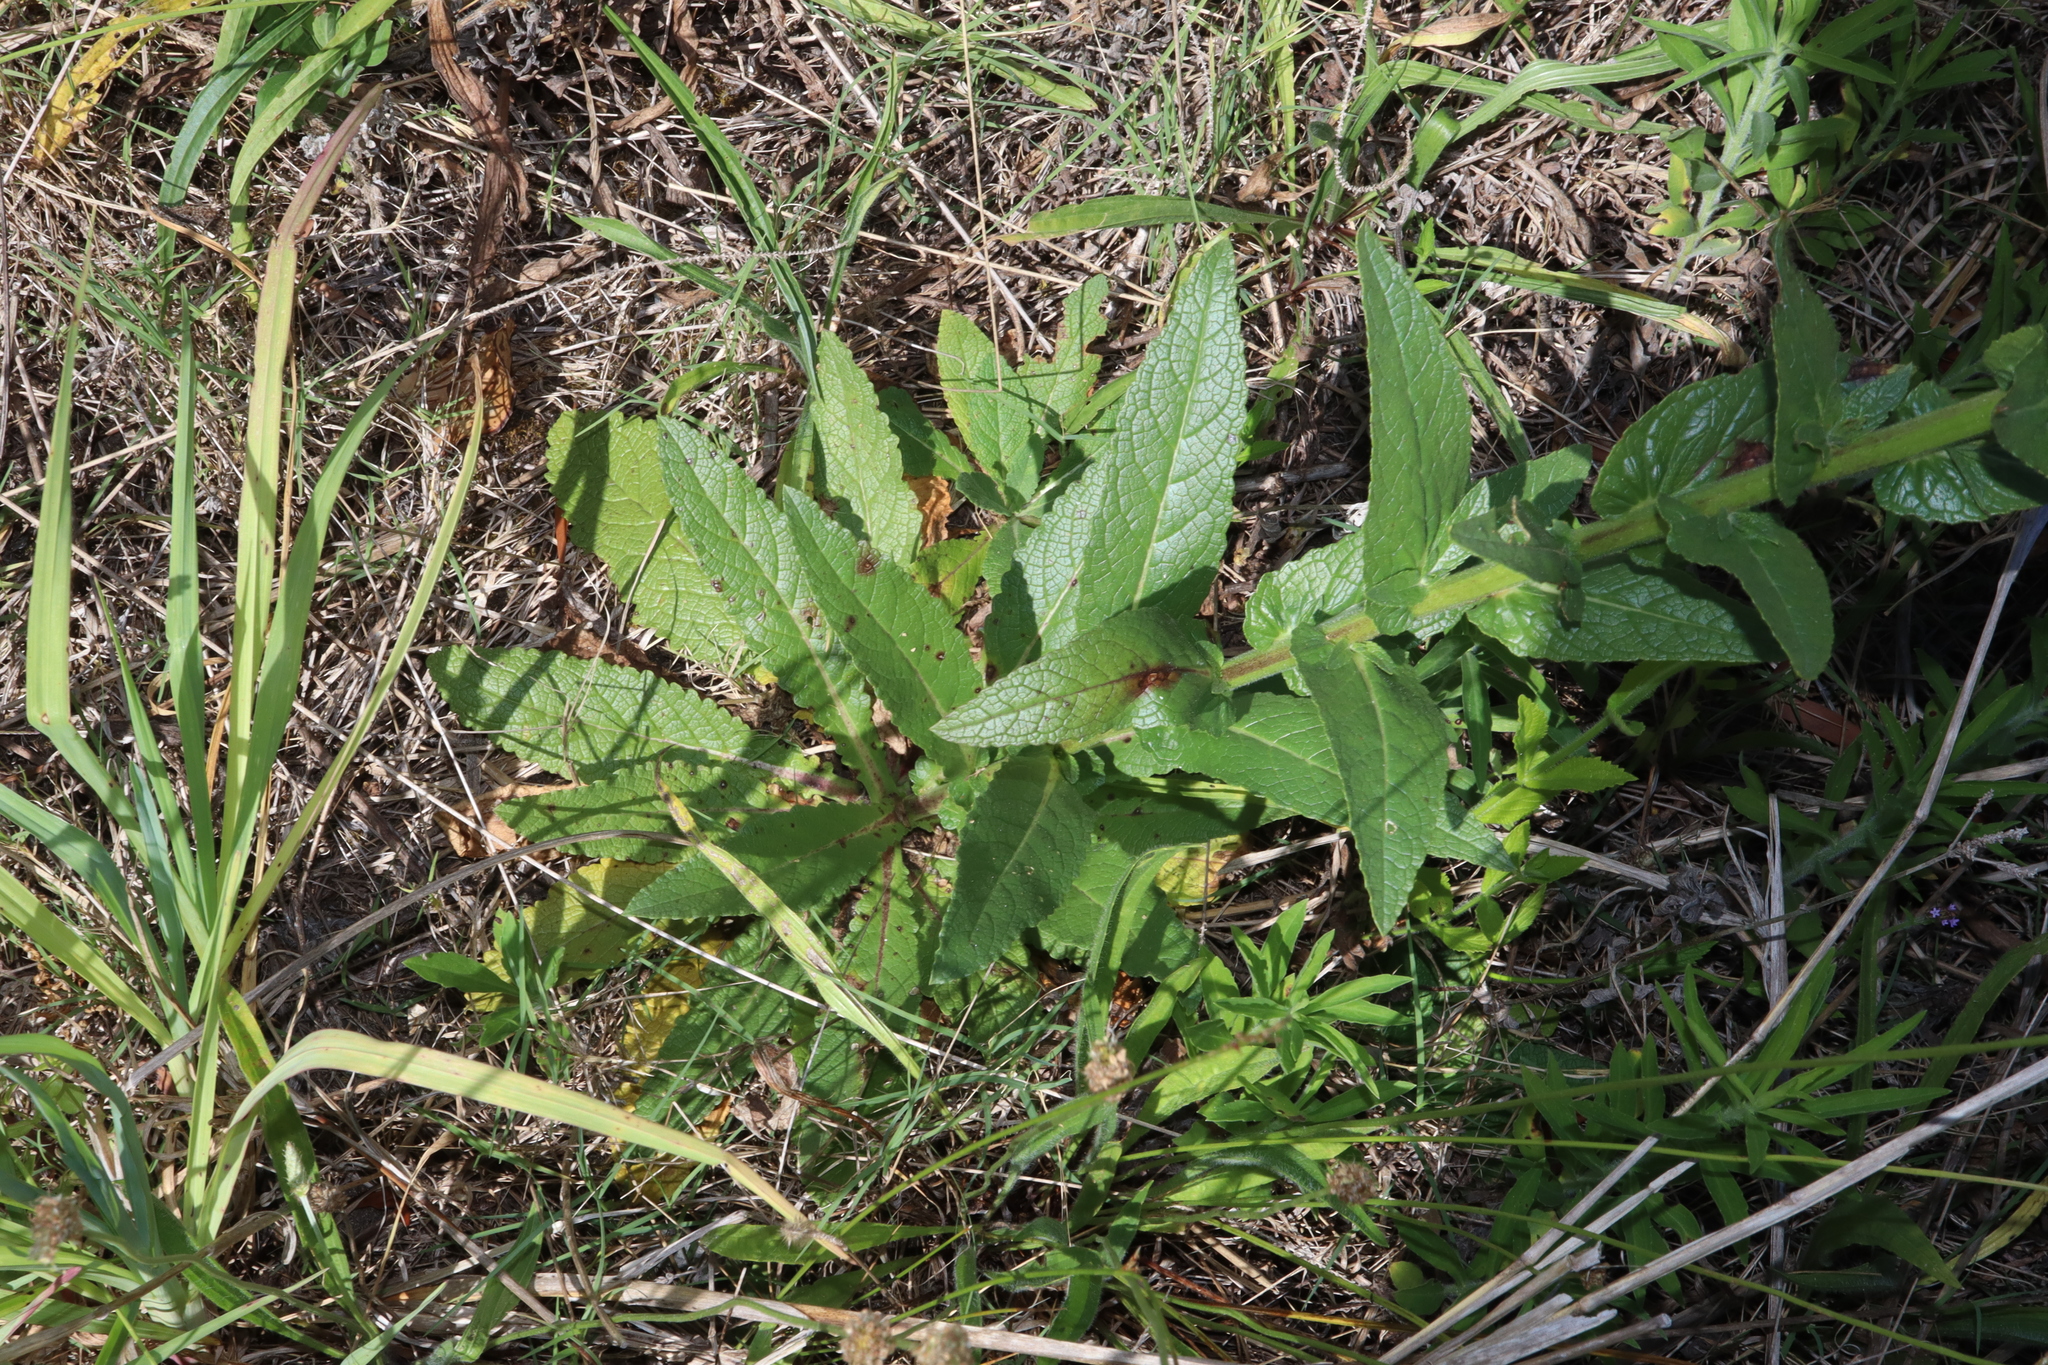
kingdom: Plantae
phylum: Tracheophyta
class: Magnoliopsida
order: Lamiales
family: Scrophulariaceae
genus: Verbascum
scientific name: Verbascum virgatum
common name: Twiggy mullein
